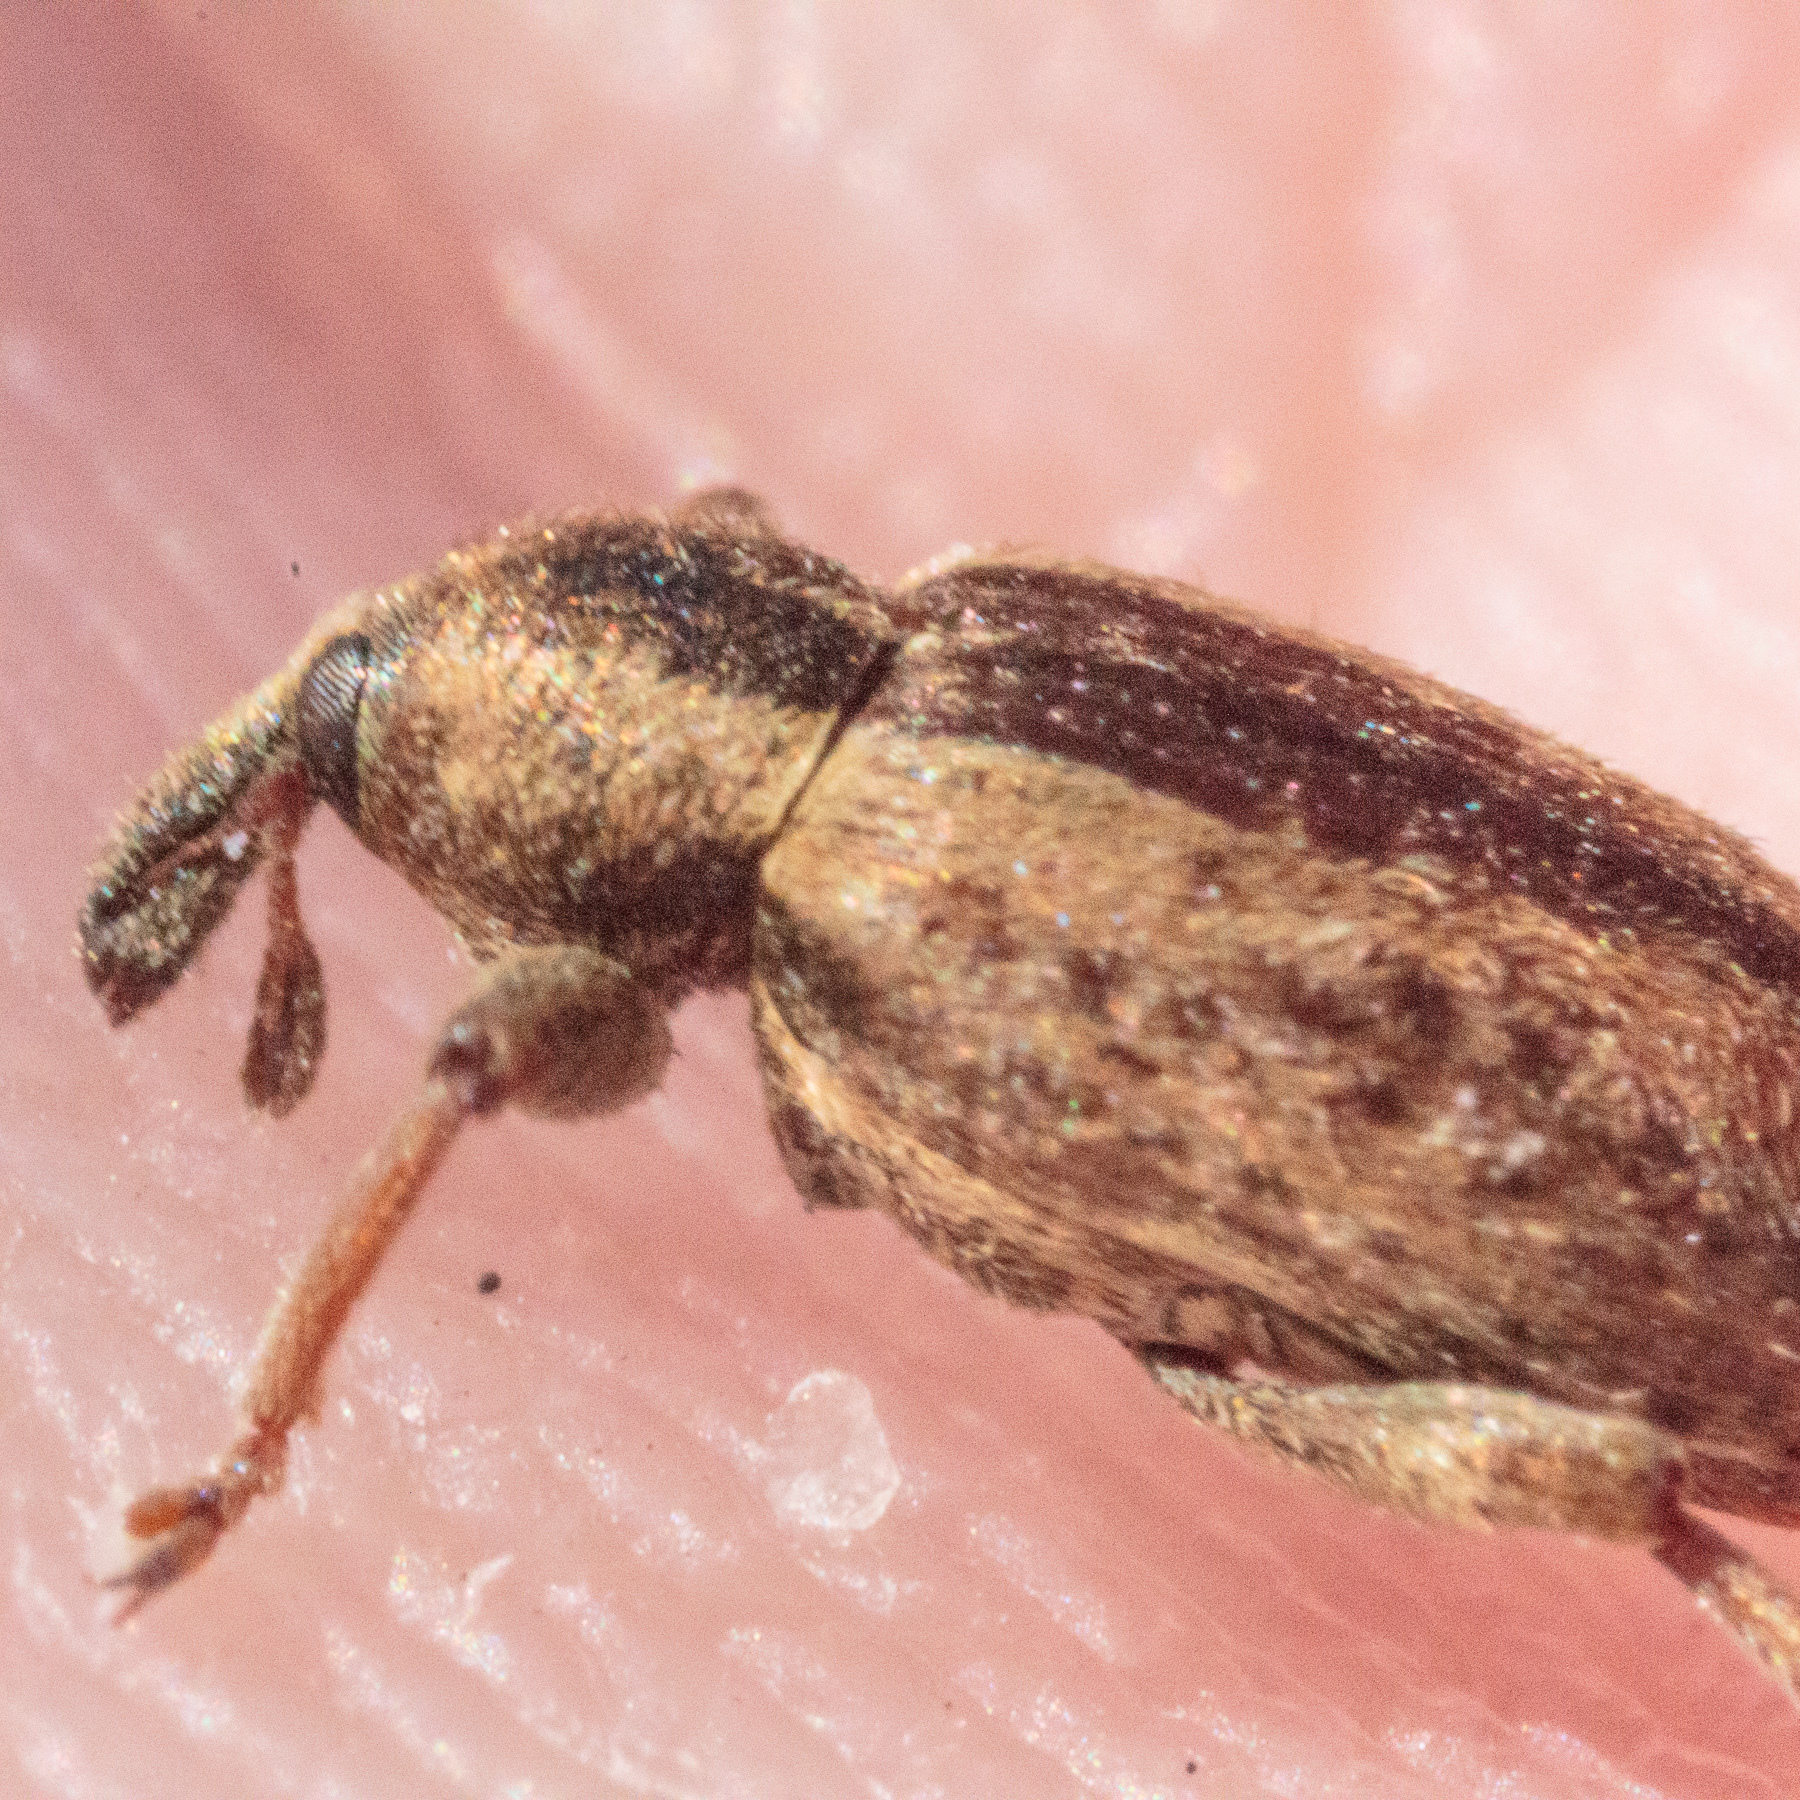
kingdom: Animalia
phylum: Arthropoda
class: Insecta
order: Coleoptera
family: Curculionidae
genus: Hypera
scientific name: Hypera postica
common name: Weevil
